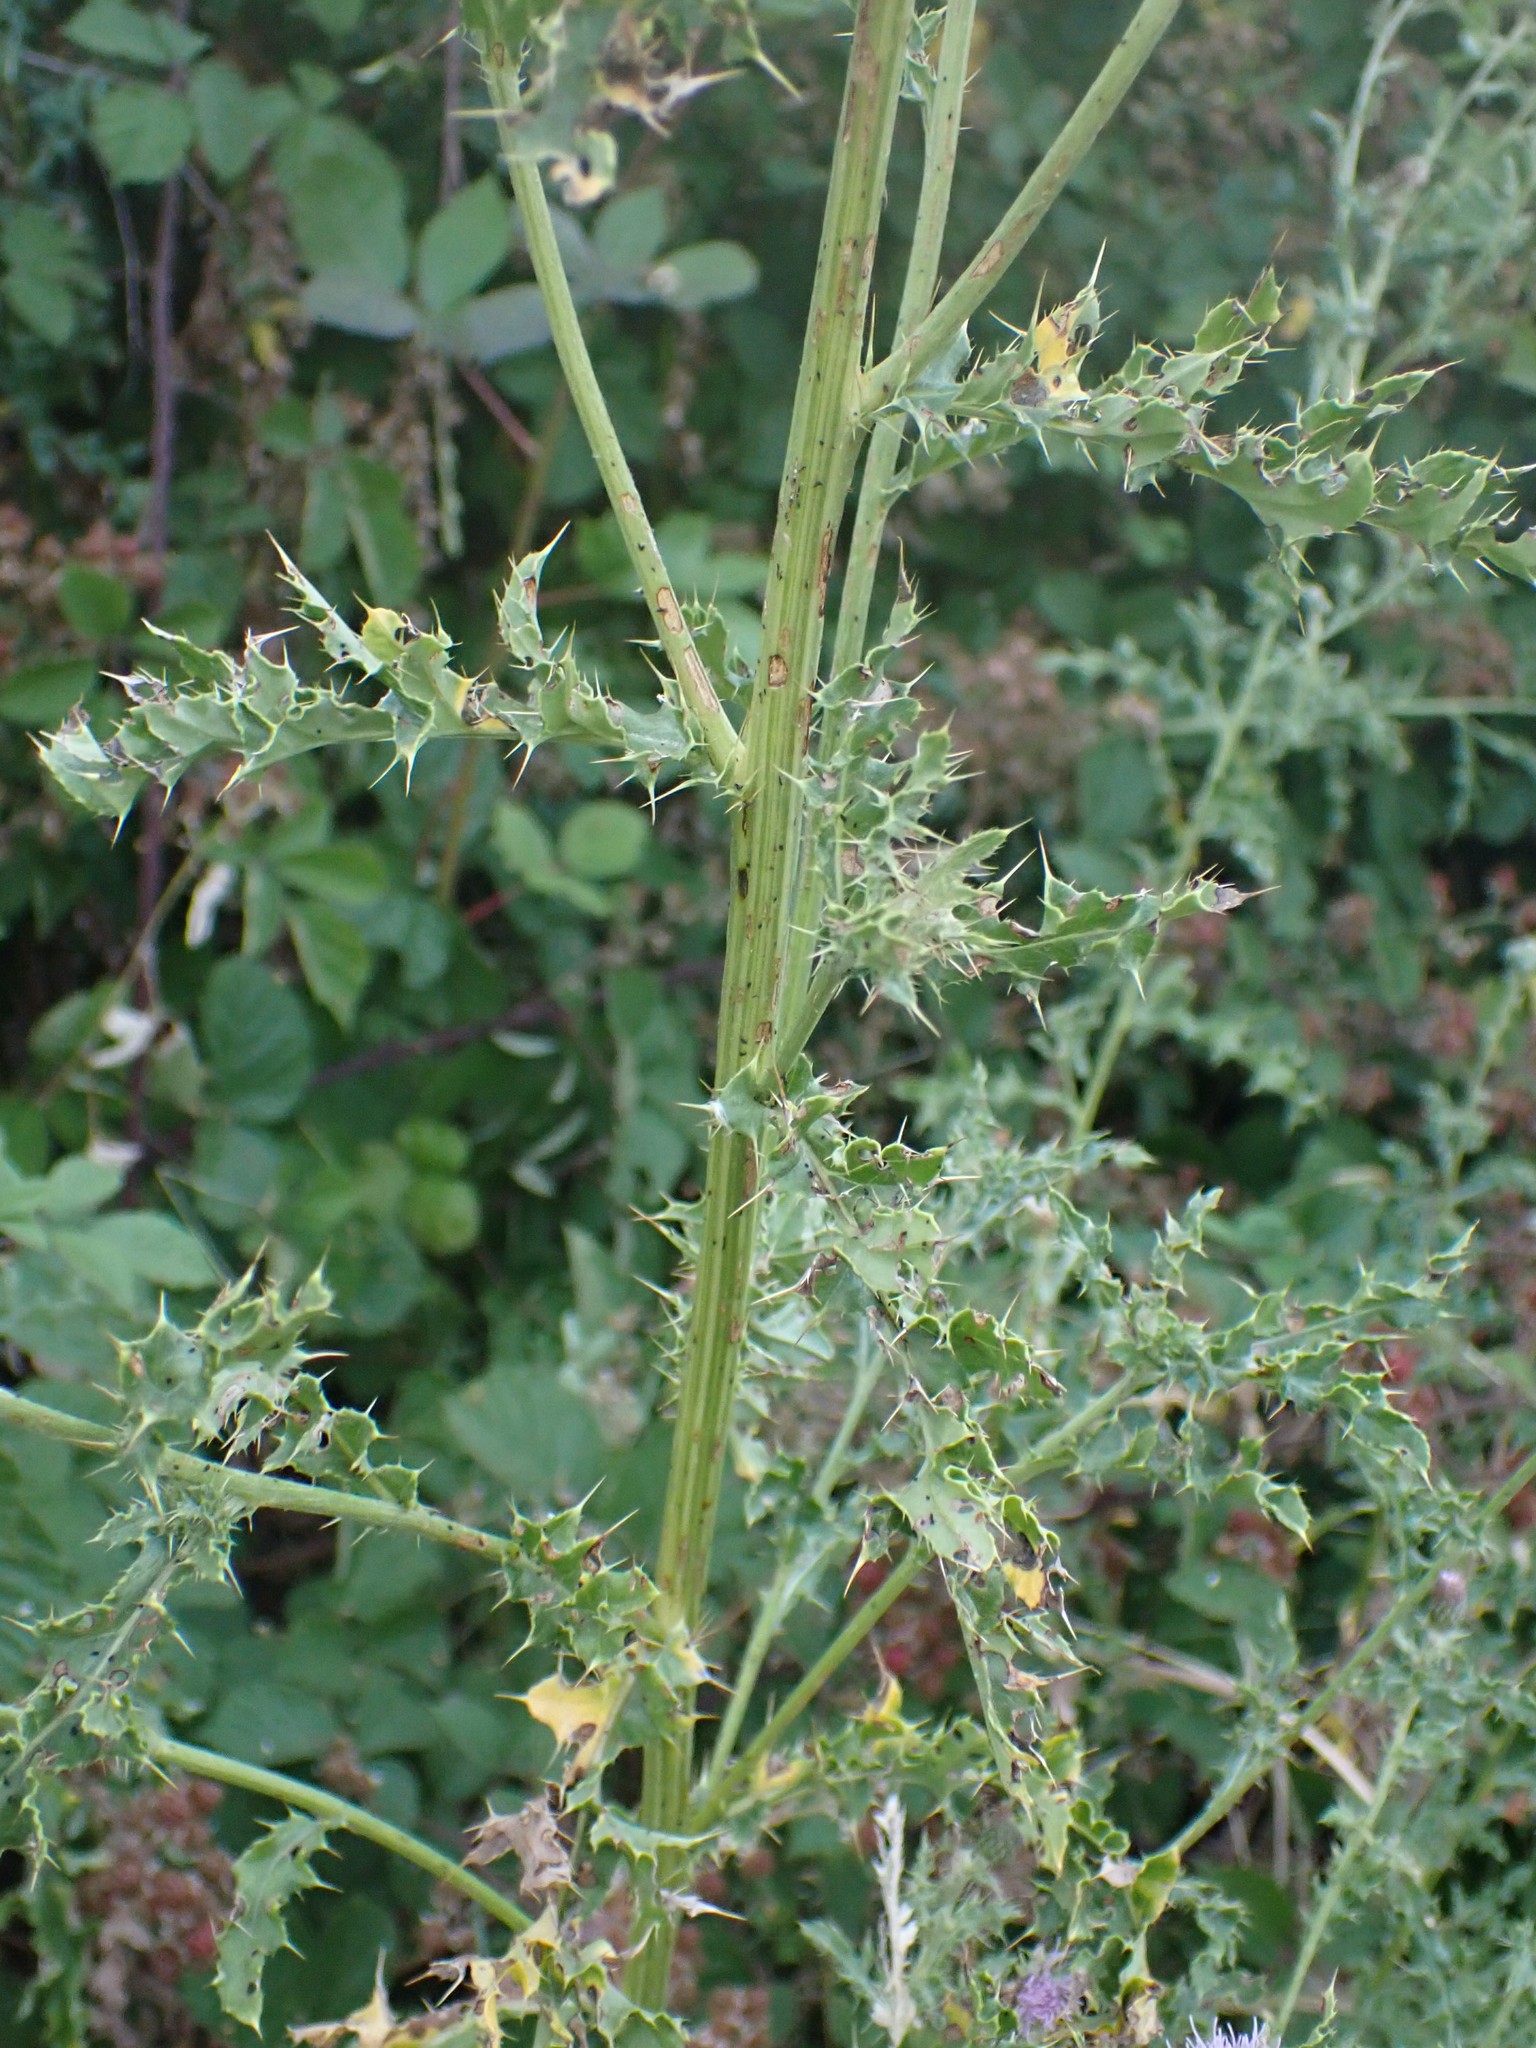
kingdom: Plantae
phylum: Tracheophyta
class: Magnoliopsida
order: Asterales
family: Asteraceae
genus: Cirsium
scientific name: Cirsium arvense
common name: Creeping thistle
